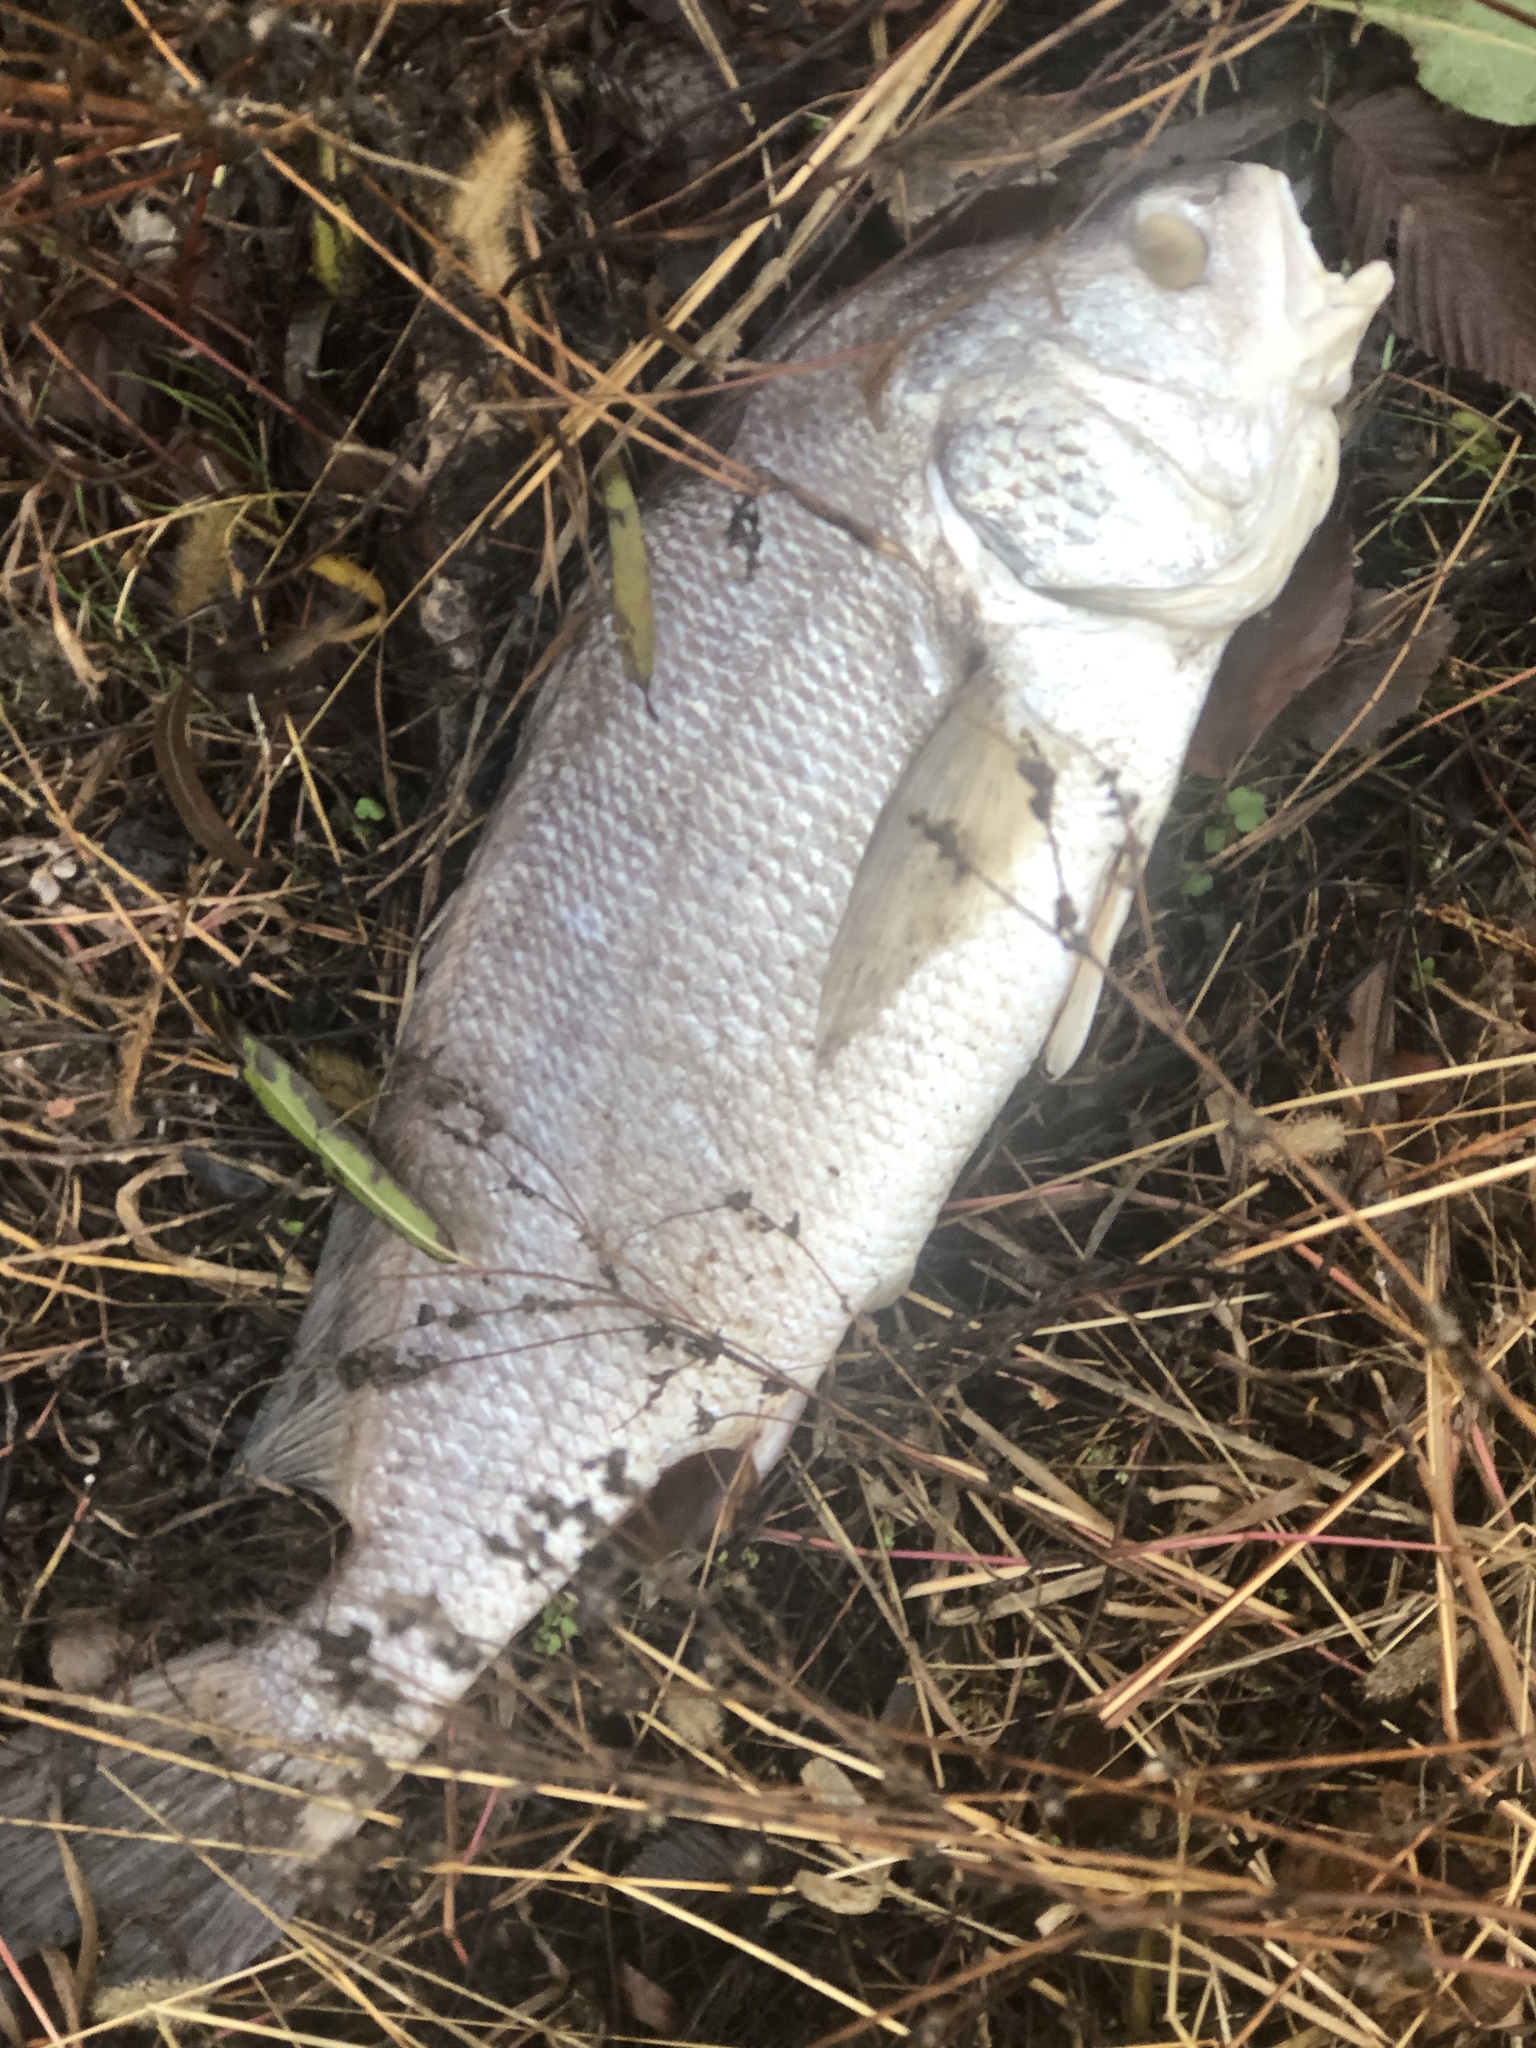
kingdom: Animalia
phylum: Chordata
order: Perciformes
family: Sciaenidae
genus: Aplodinotus
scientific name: Aplodinotus grunniens
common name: Freshwater drum
